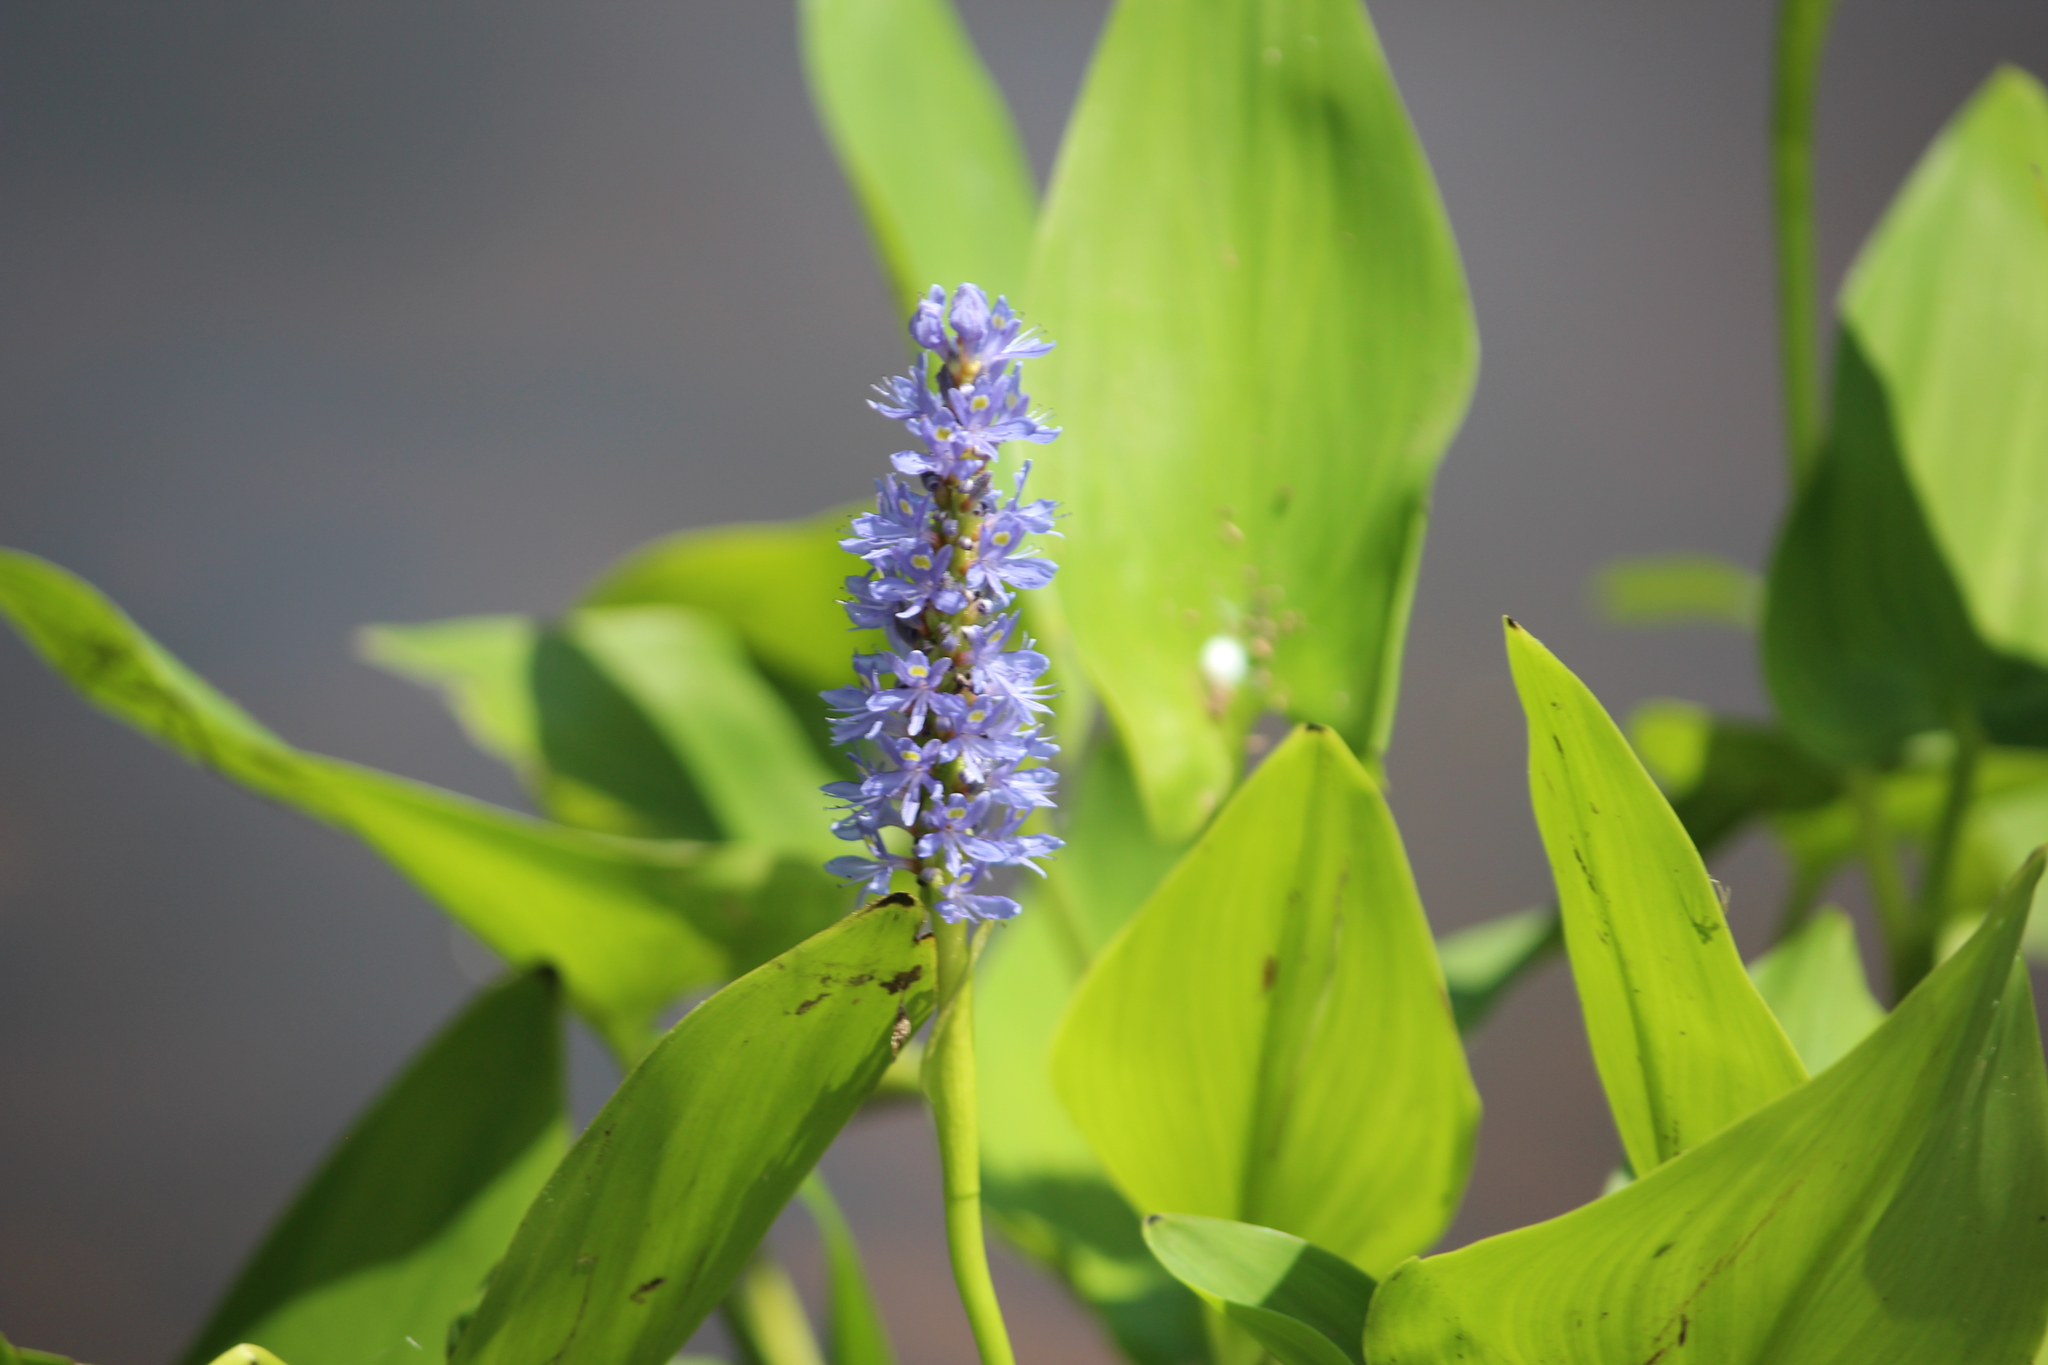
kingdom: Plantae
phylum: Tracheophyta
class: Liliopsida
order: Commelinales
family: Pontederiaceae
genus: Pontederia
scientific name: Pontederia cordata
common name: Pickerelweed
